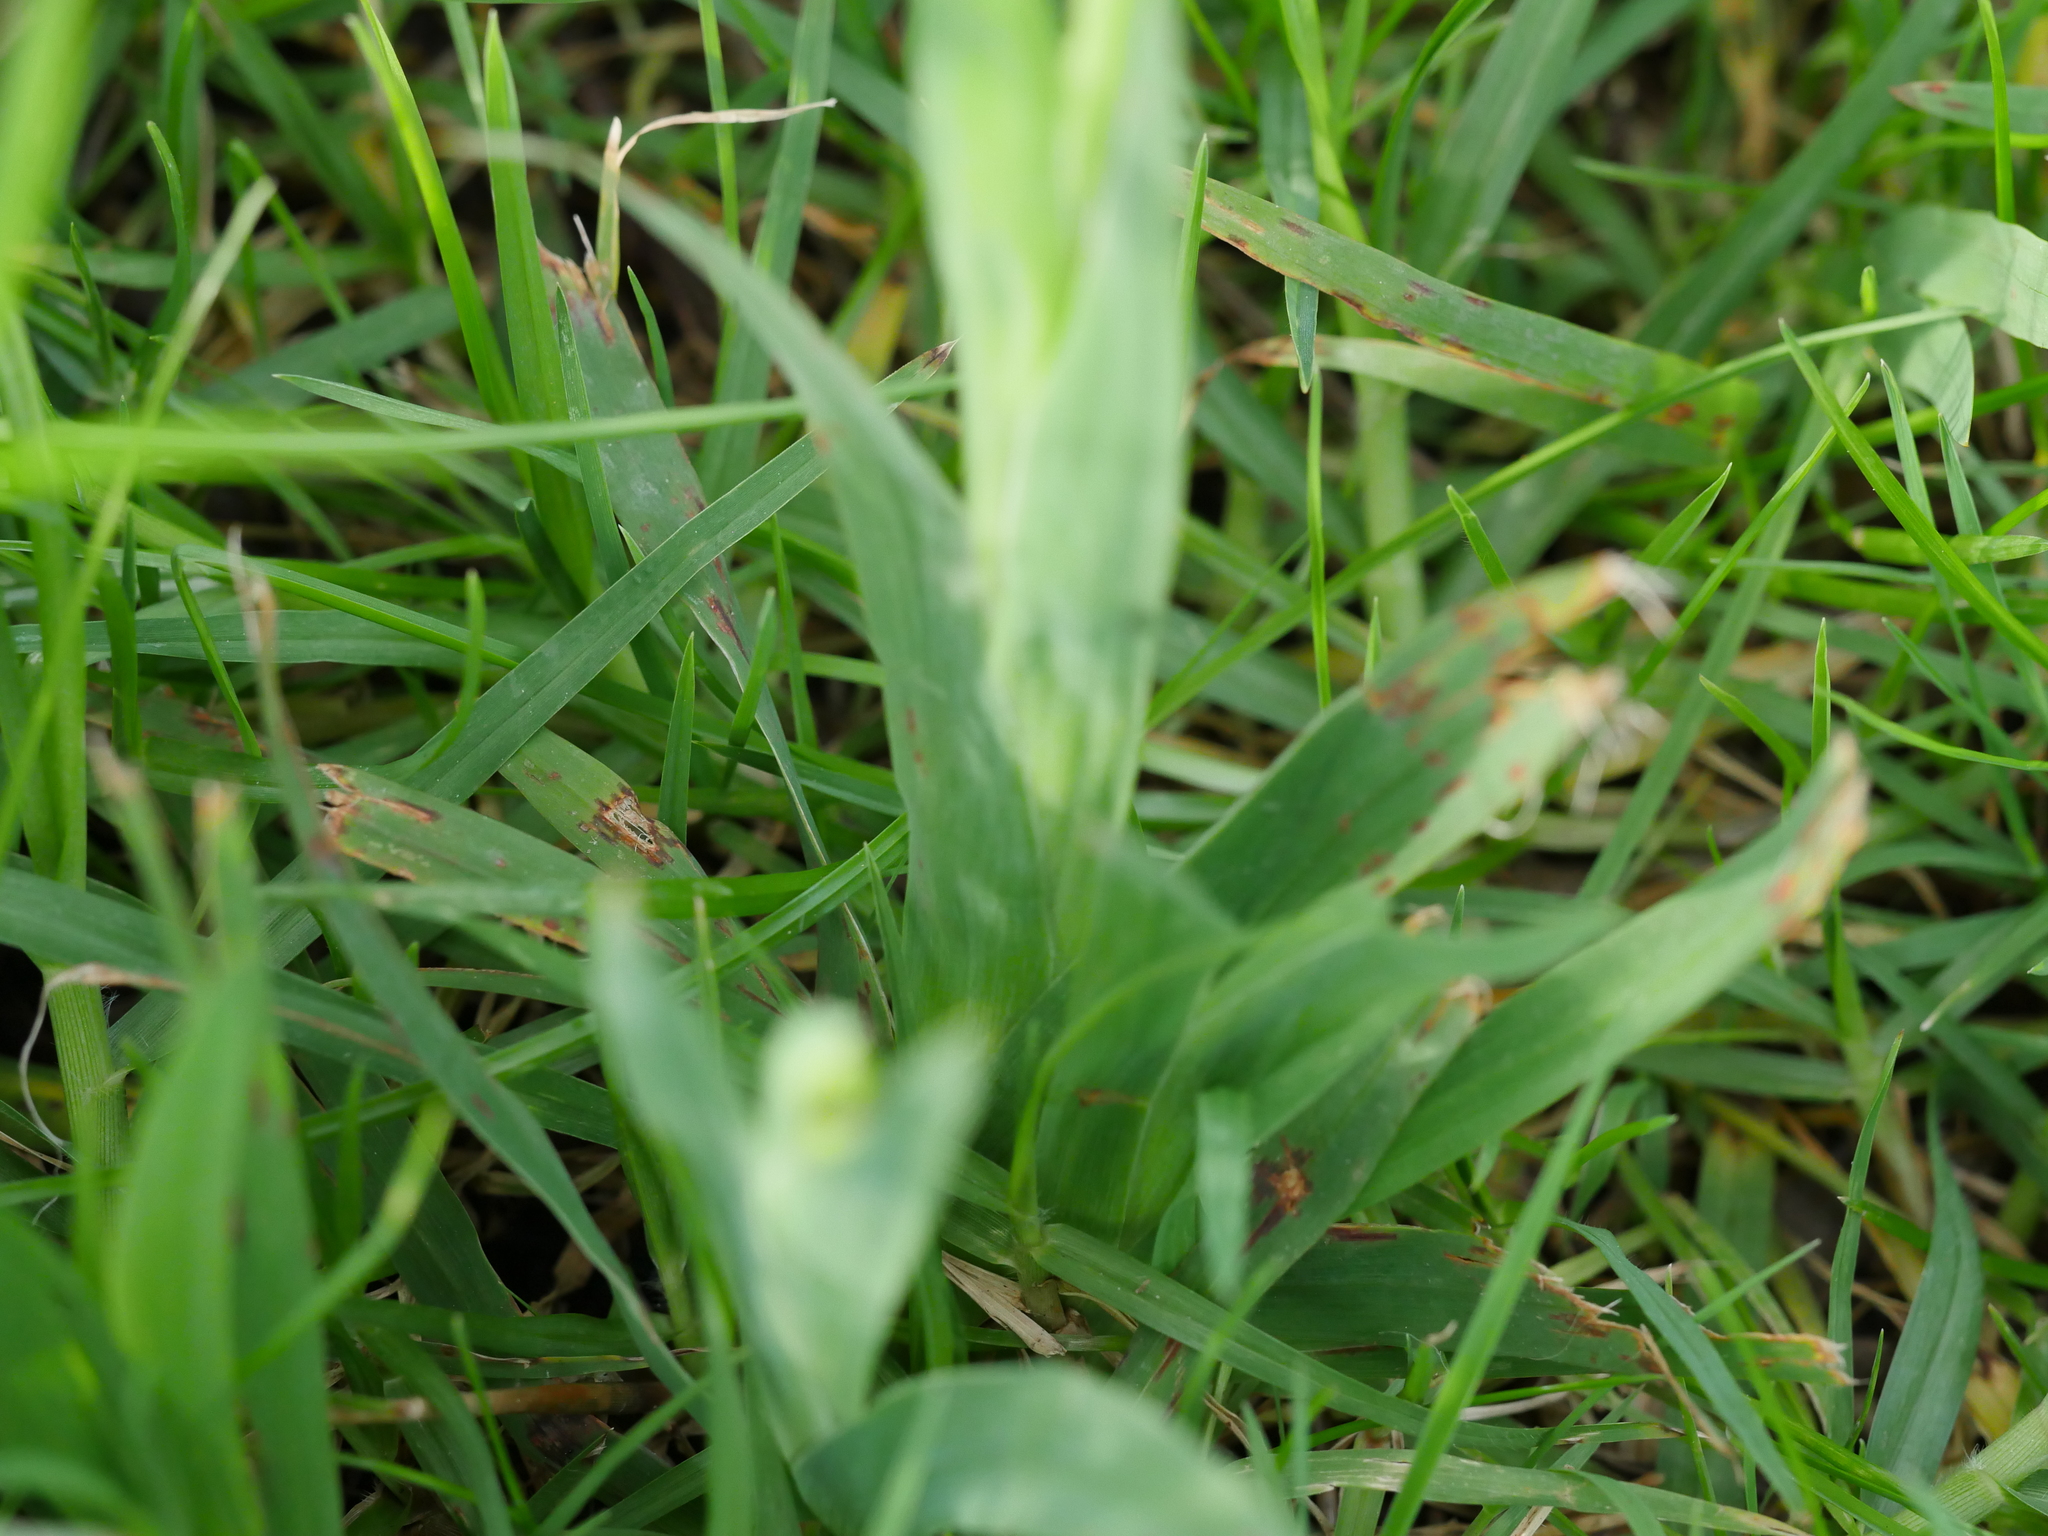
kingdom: Plantae
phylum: Tracheophyta
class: Liliopsida
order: Asparagales
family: Iridaceae
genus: Sparaxis
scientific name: Sparaxis bulbifera
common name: Harlequin-flower
